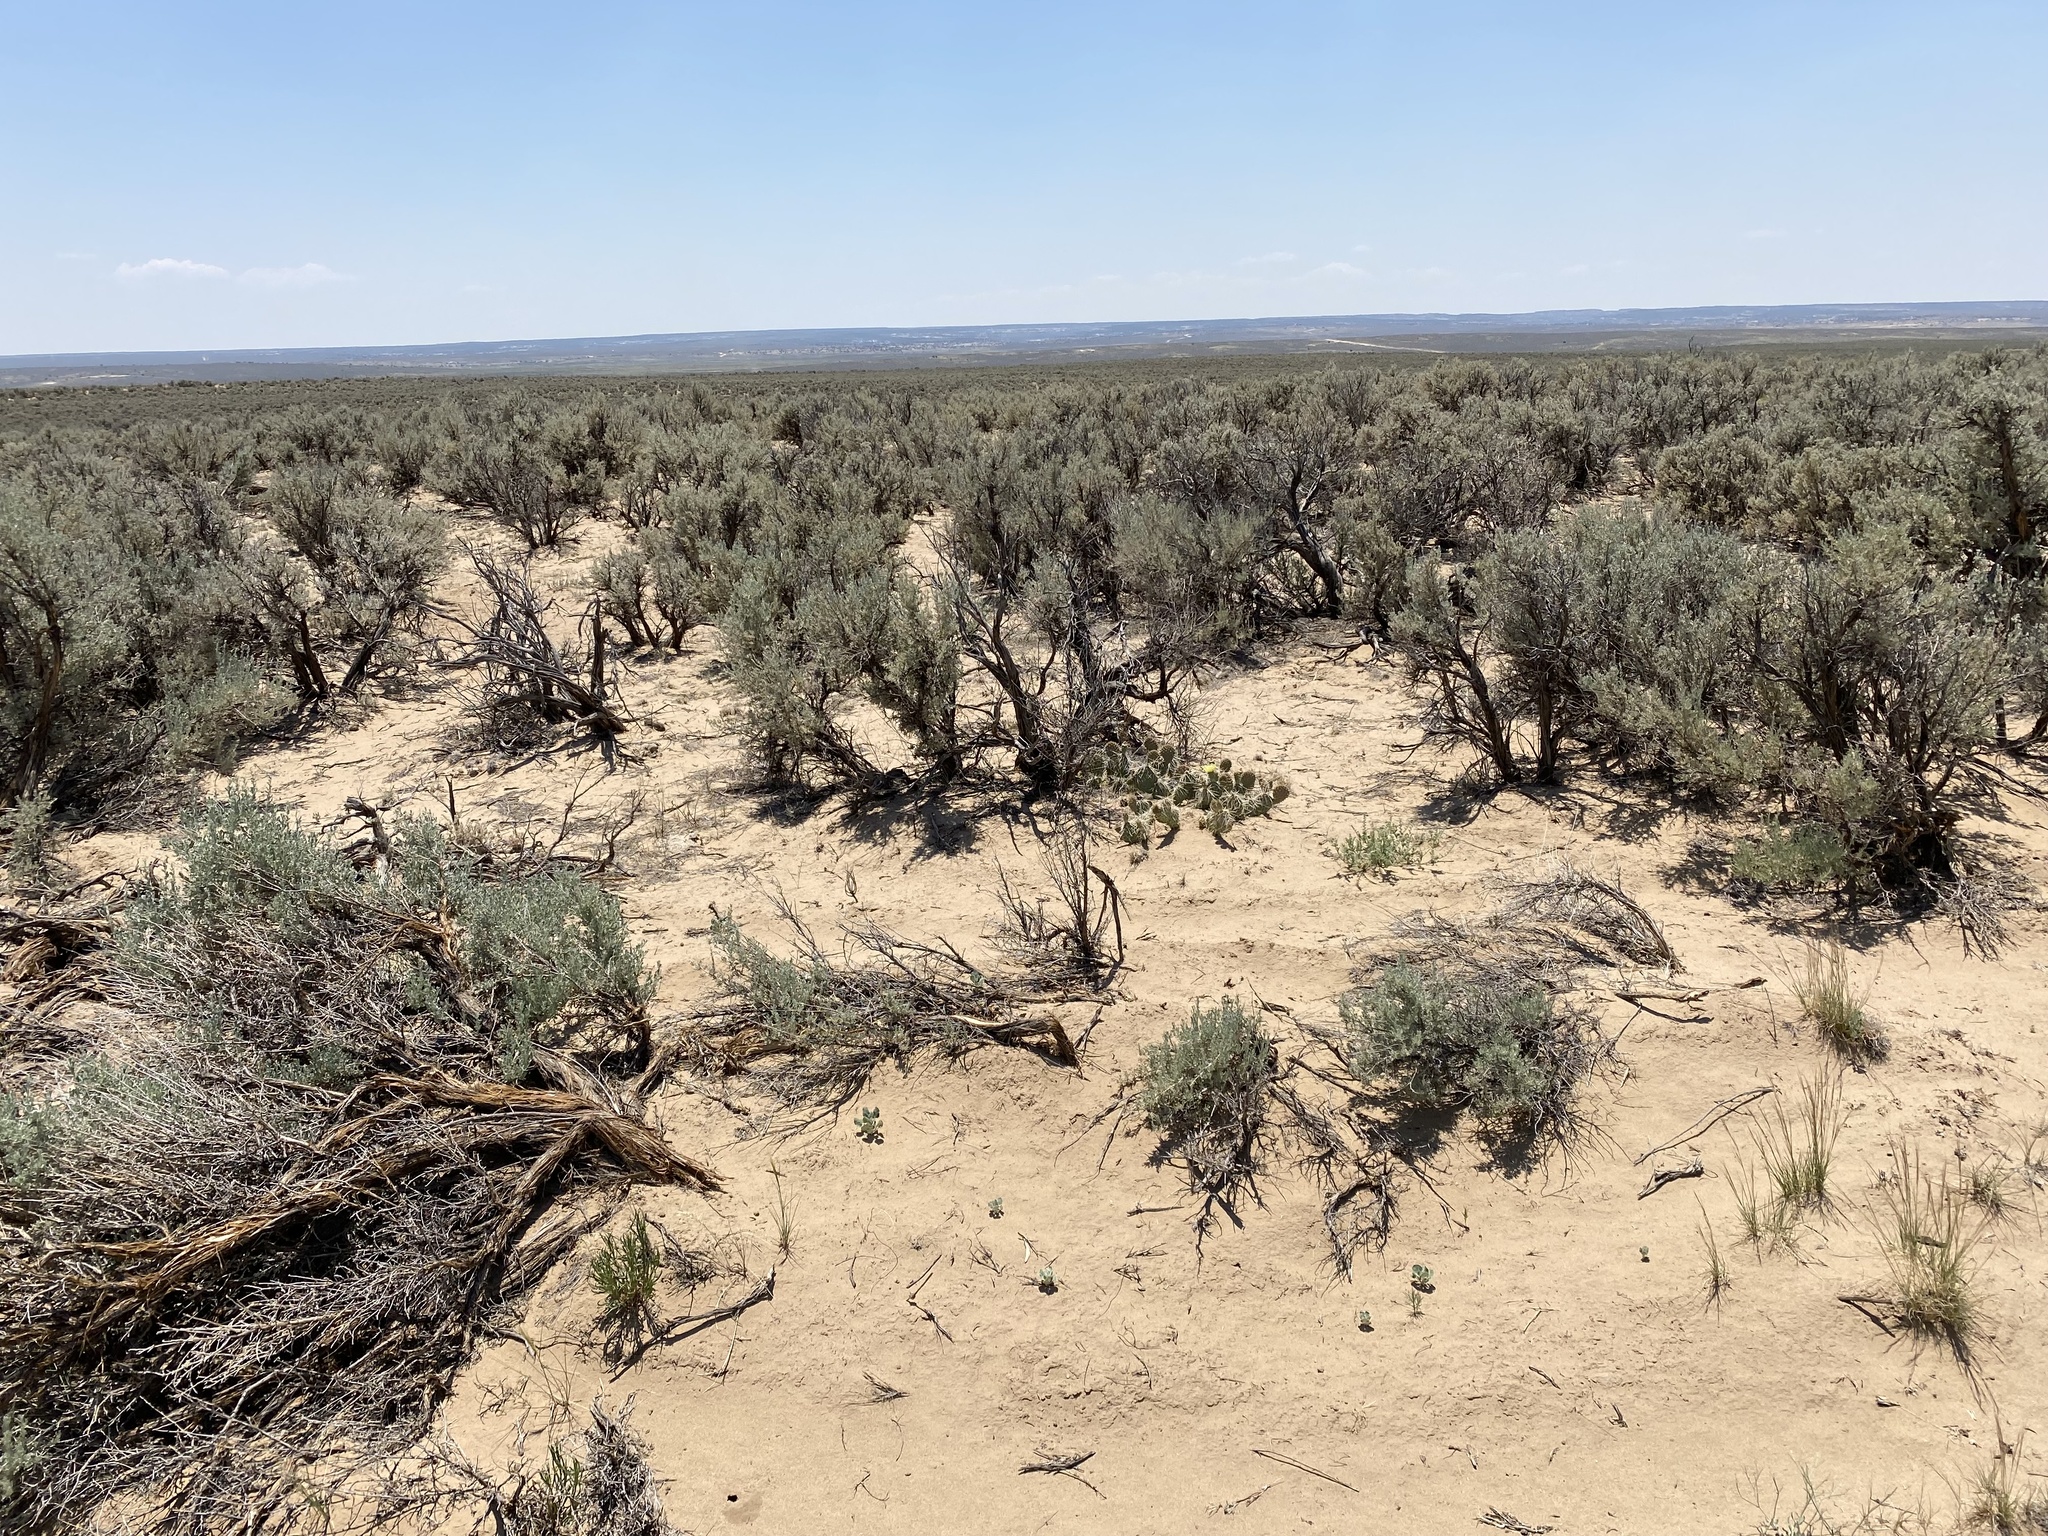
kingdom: Plantae
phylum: Tracheophyta
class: Magnoliopsida
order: Asterales
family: Asteraceae
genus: Artemisia
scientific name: Artemisia tridentata
